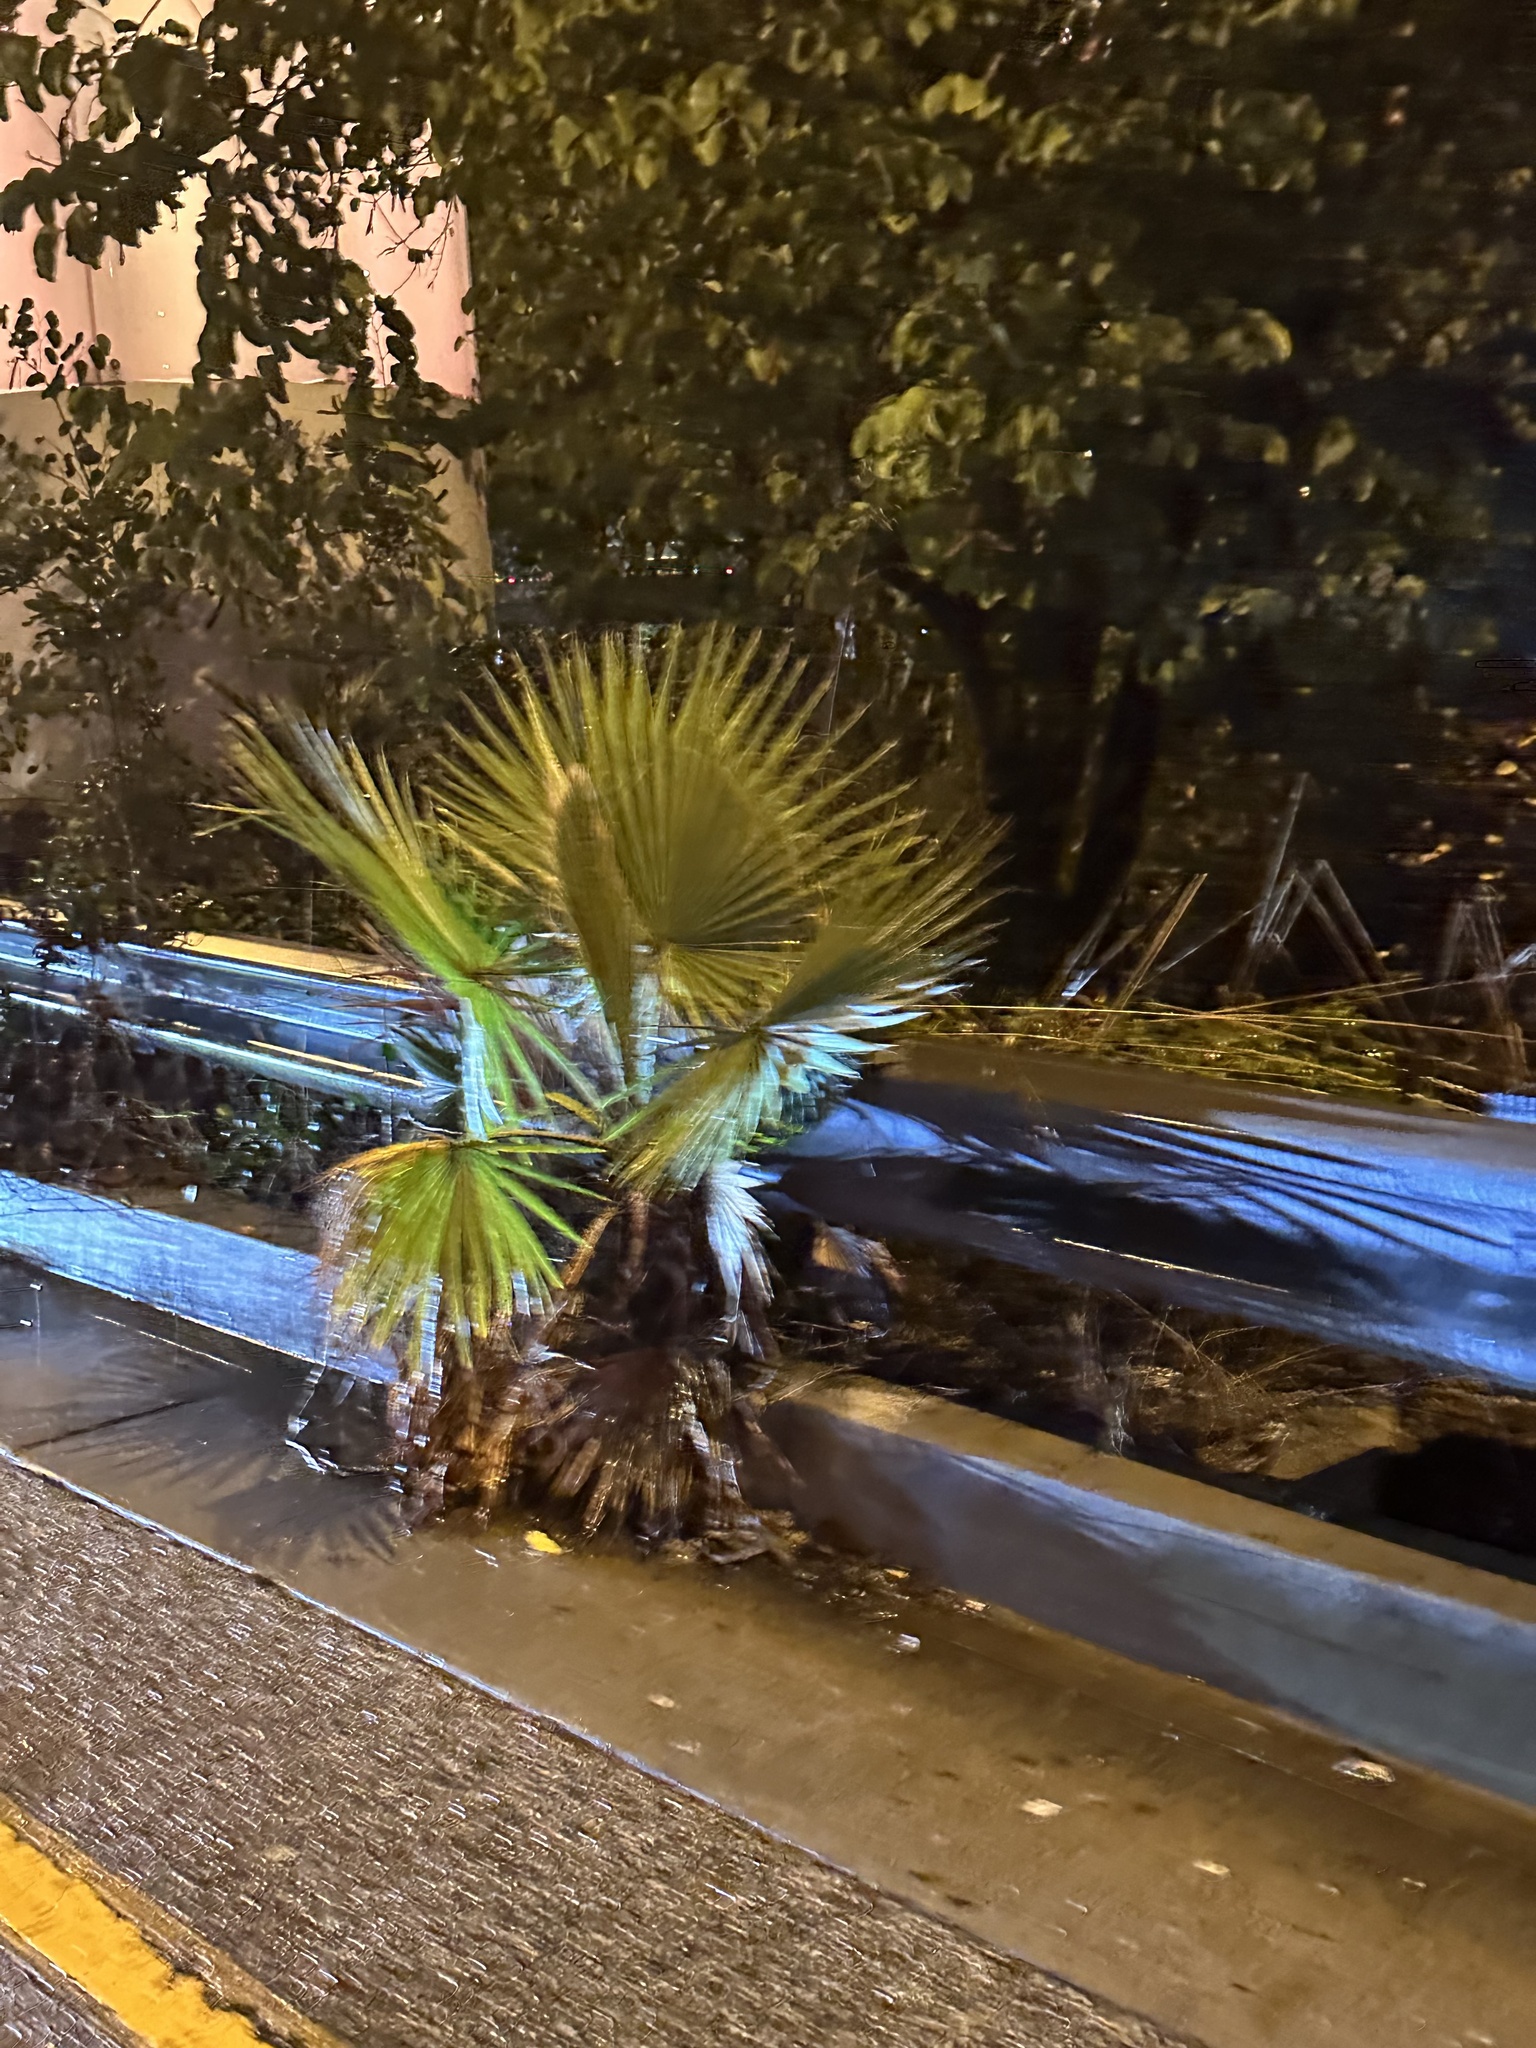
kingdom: Plantae
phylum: Tracheophyta
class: Liliopsida
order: Arecales
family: Arecaceae
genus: Washingtonia
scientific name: Washingtonia robusta
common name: Mexican fan palm
